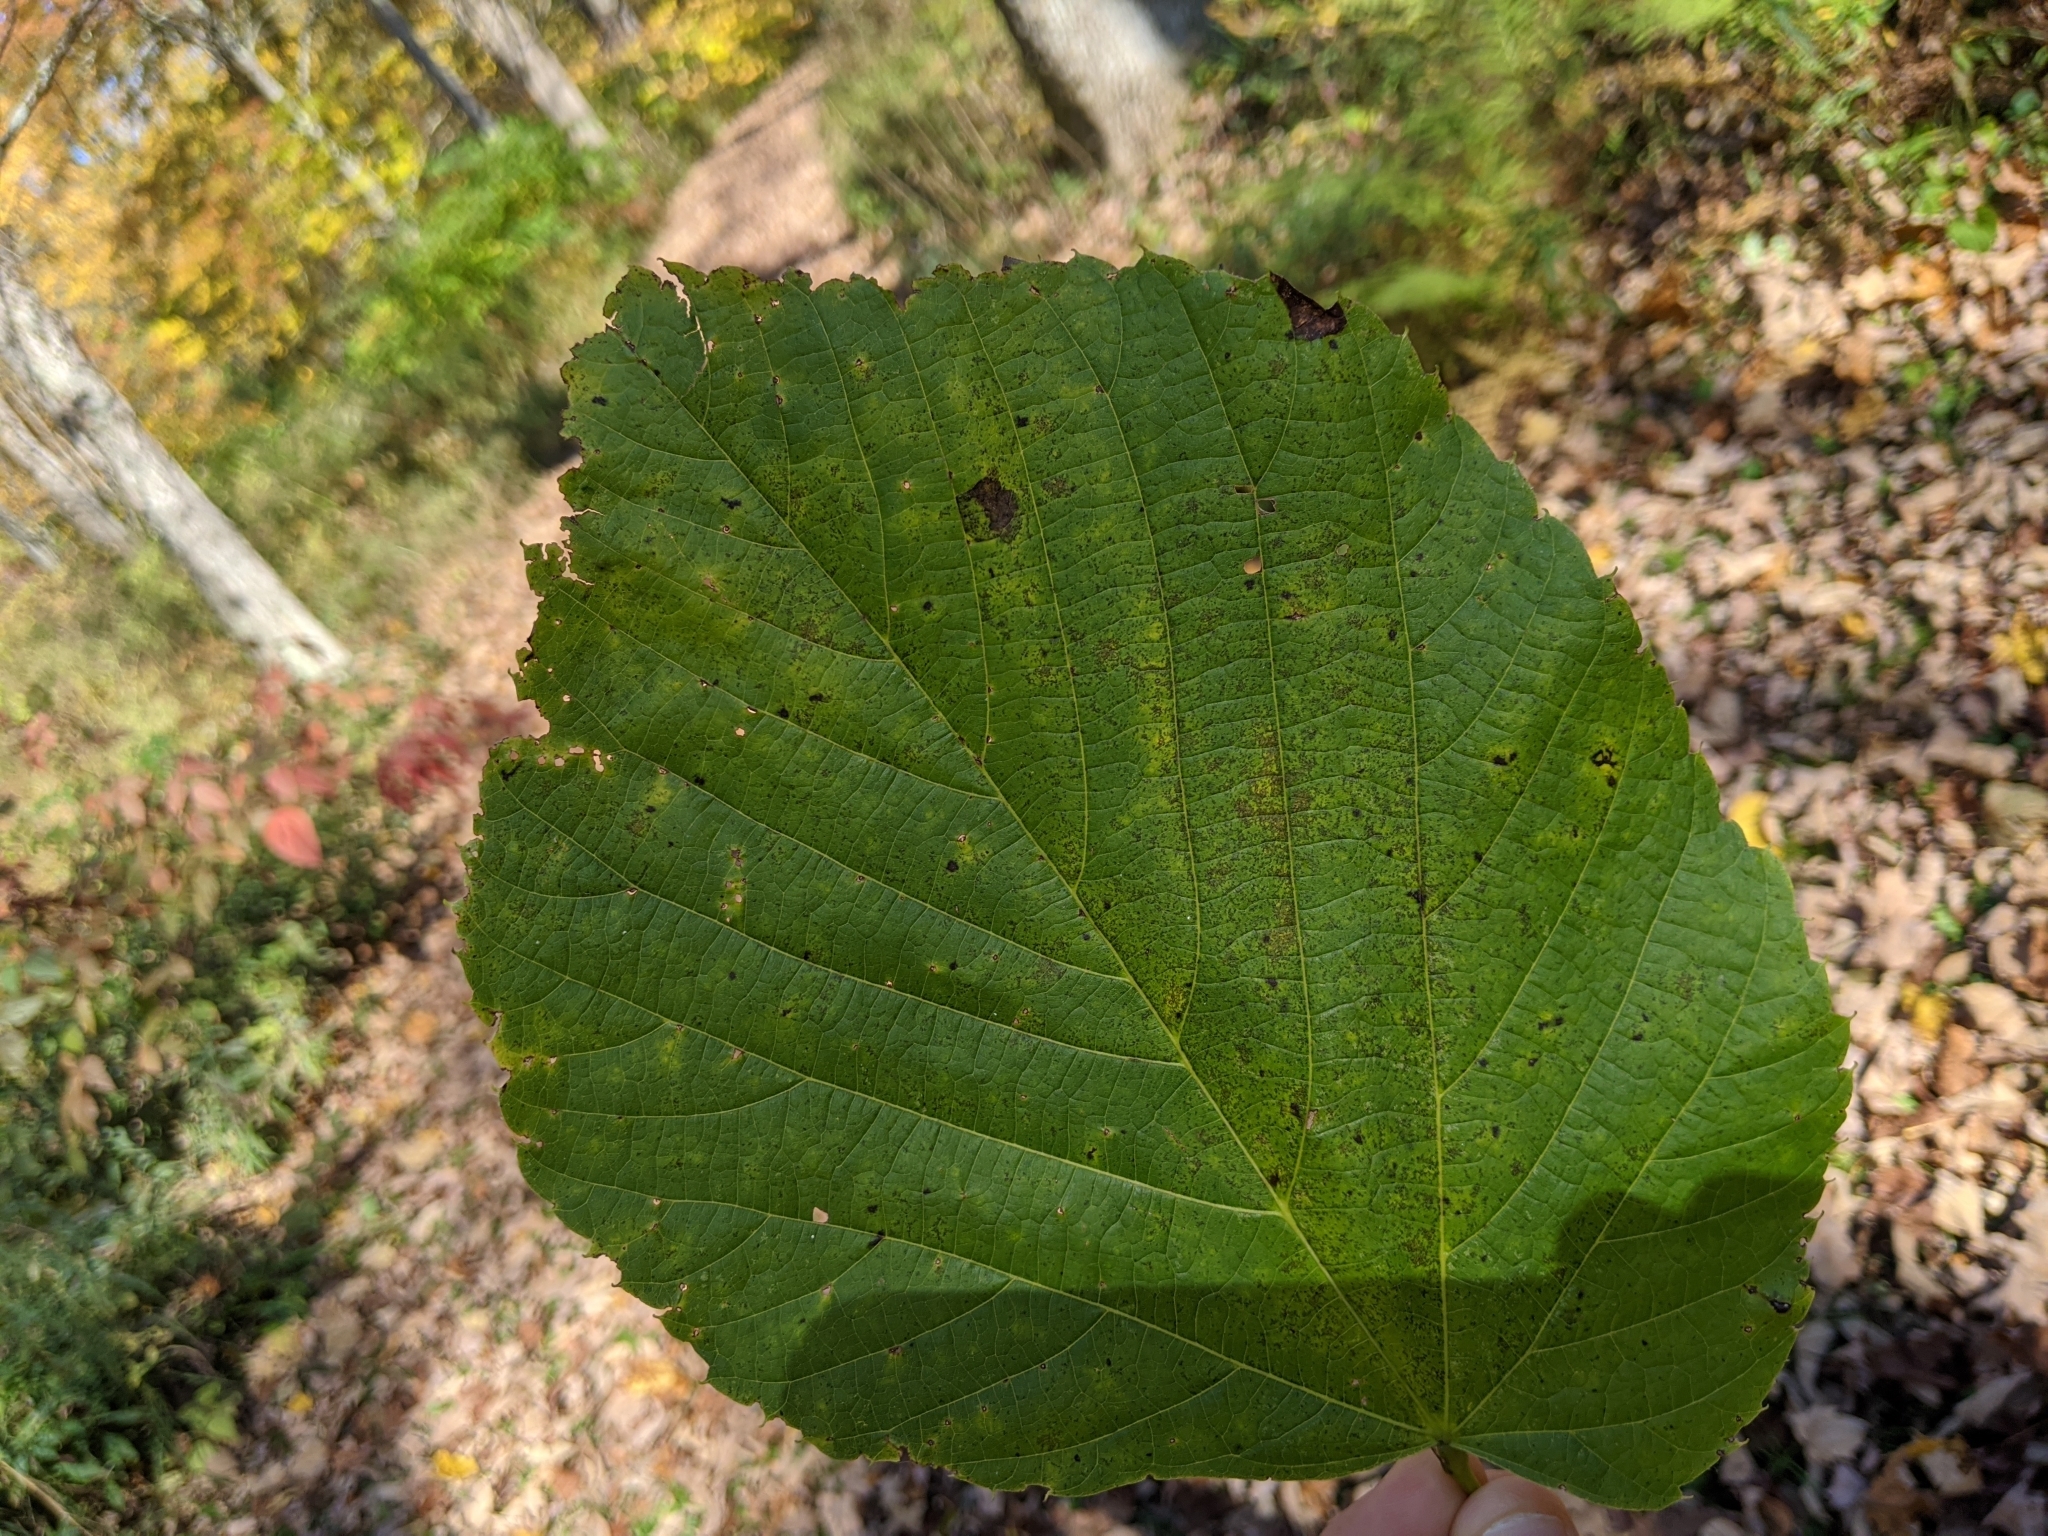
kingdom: Plantae
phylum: Tracheophyta
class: Magnoliopsida
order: Malvales
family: Malvaceae
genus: Tilia
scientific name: Tilia americana
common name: Basswood
